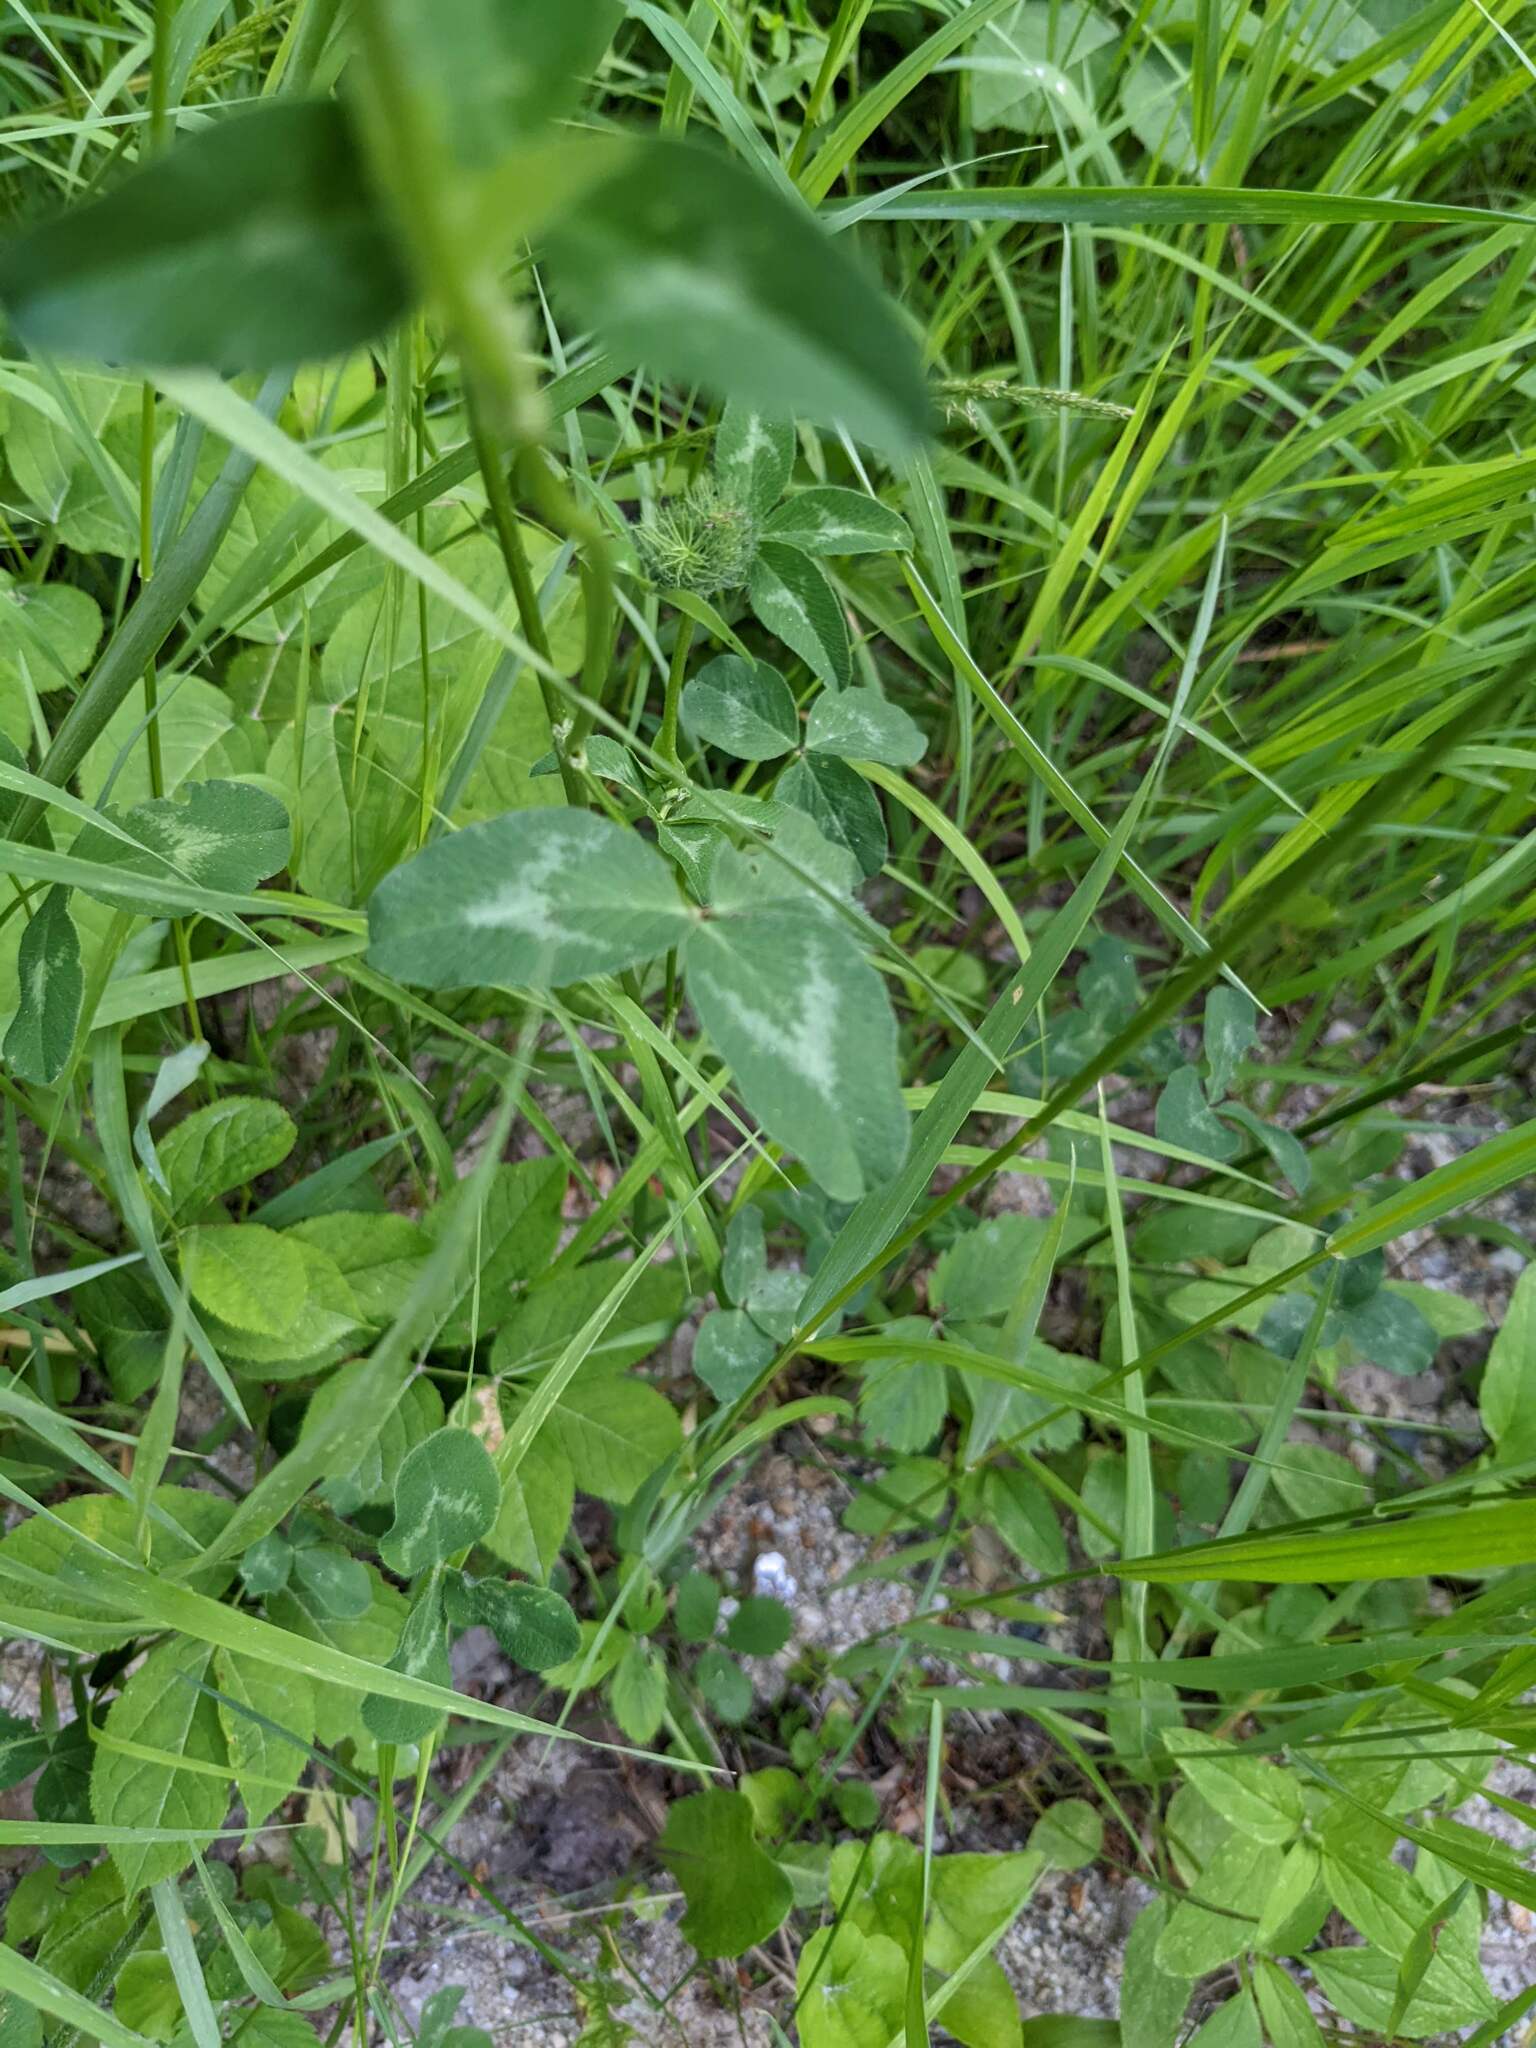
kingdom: Plantae
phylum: Tracheophyta
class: Magnoliopsida
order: Fabales
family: Fabaceae
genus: Trifolium
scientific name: Trifolium repens
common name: White clover
